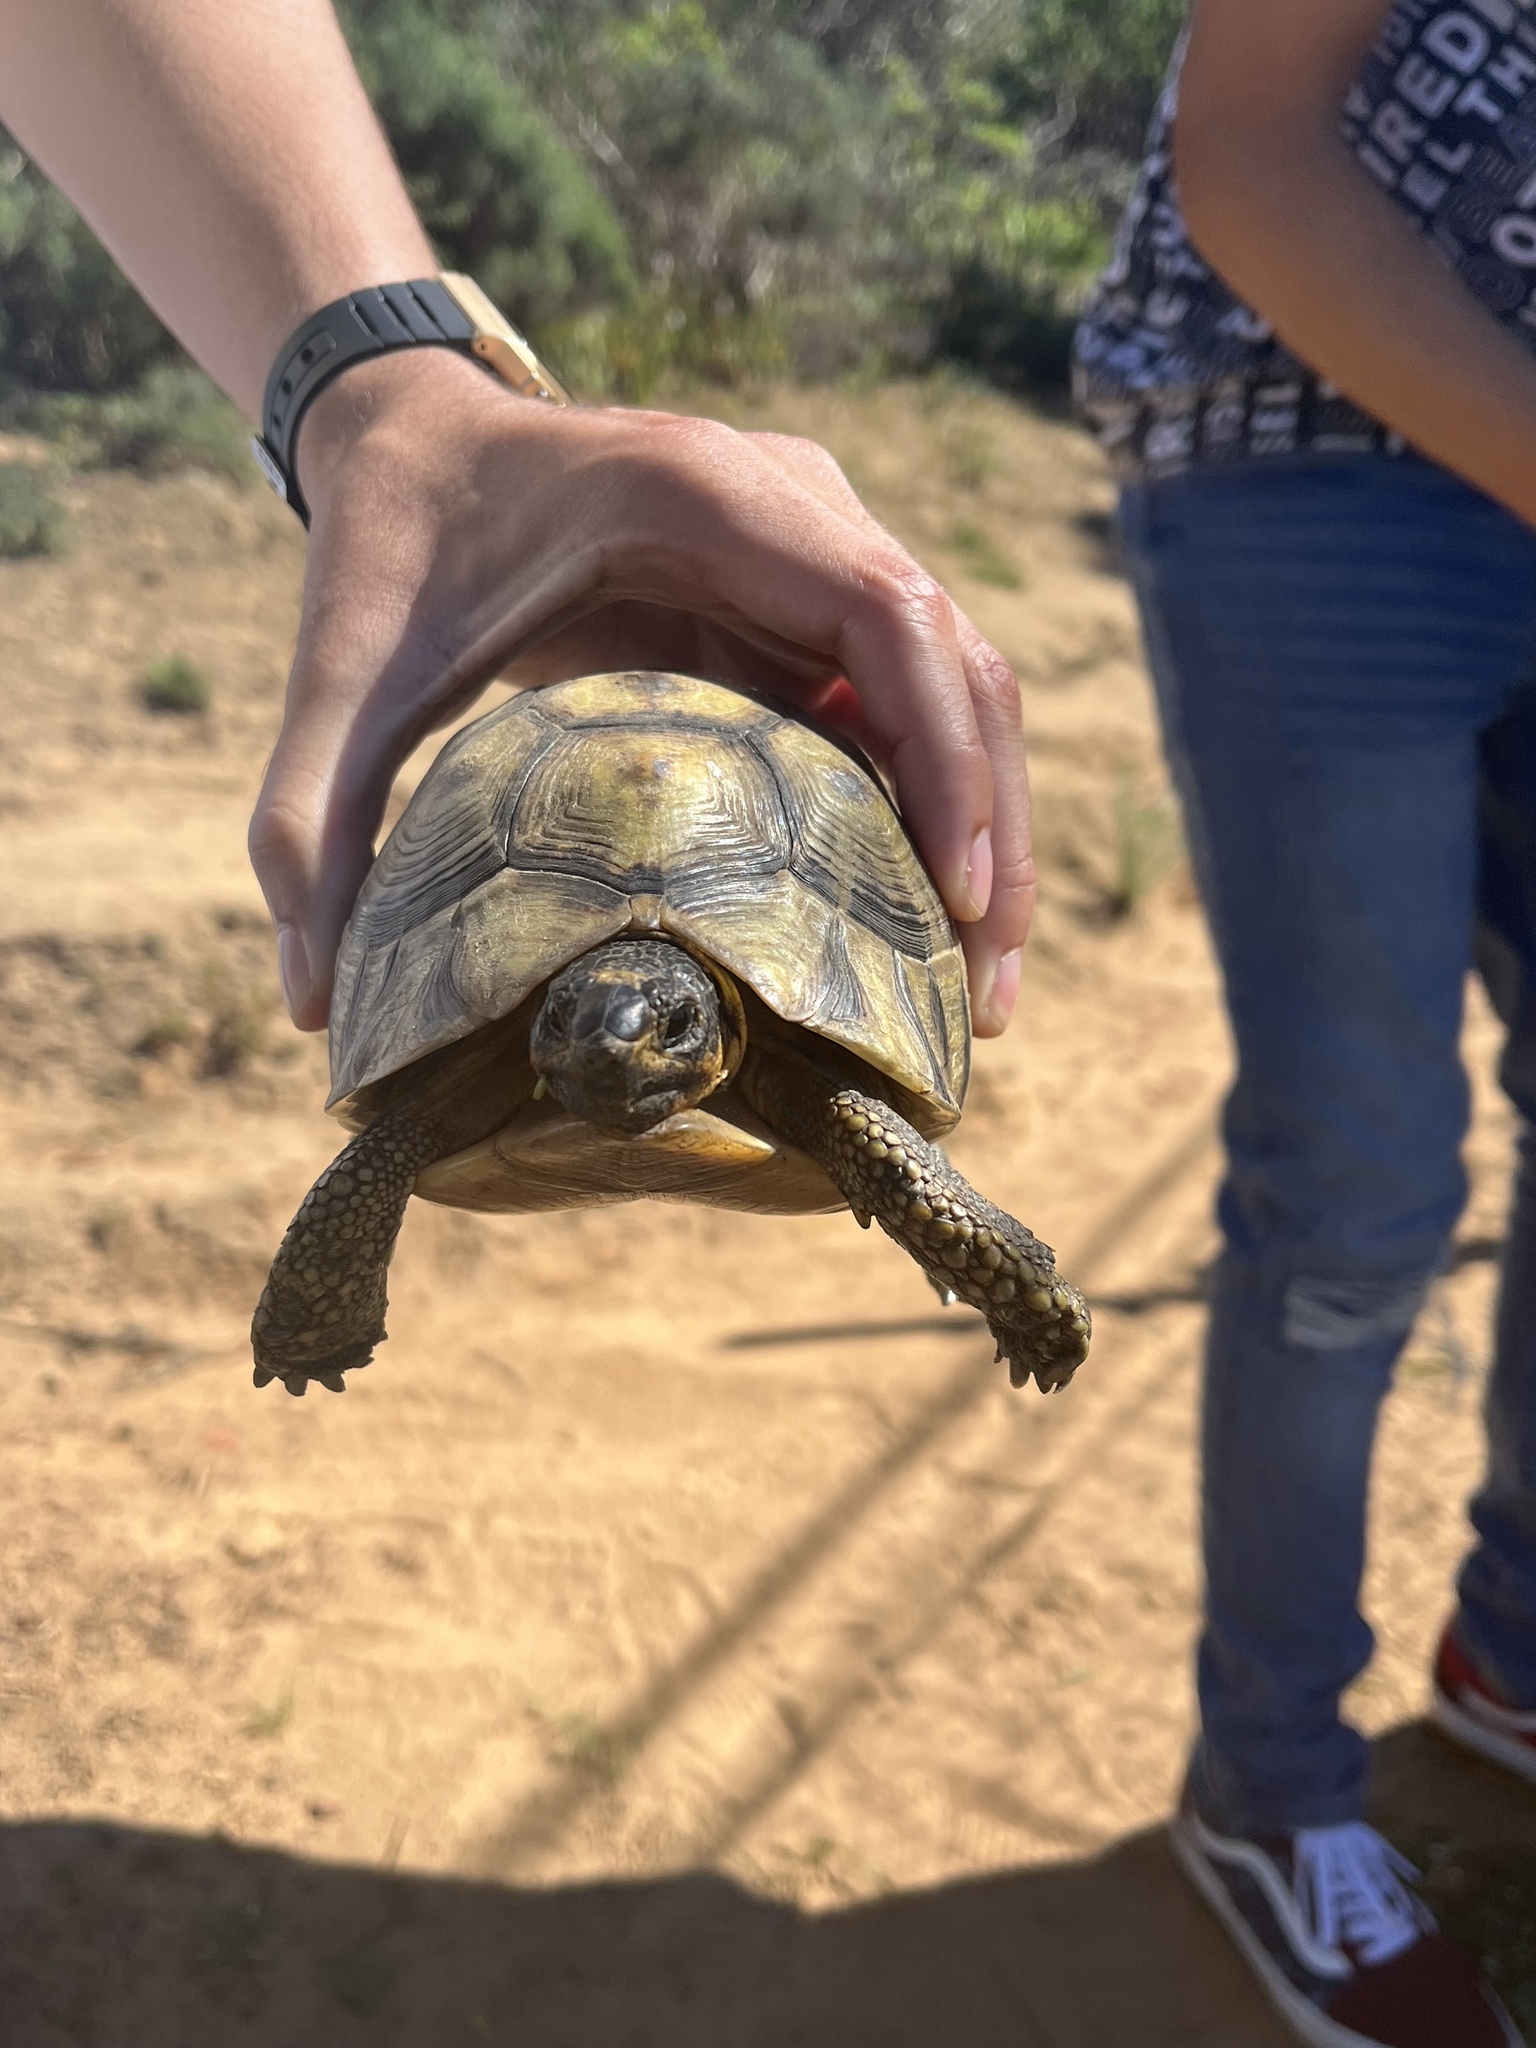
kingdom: Animalia
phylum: Chordata
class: Testudines
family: Testudinidae
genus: Chersina
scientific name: Chersina angulata
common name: South african bowsprit tortoise
